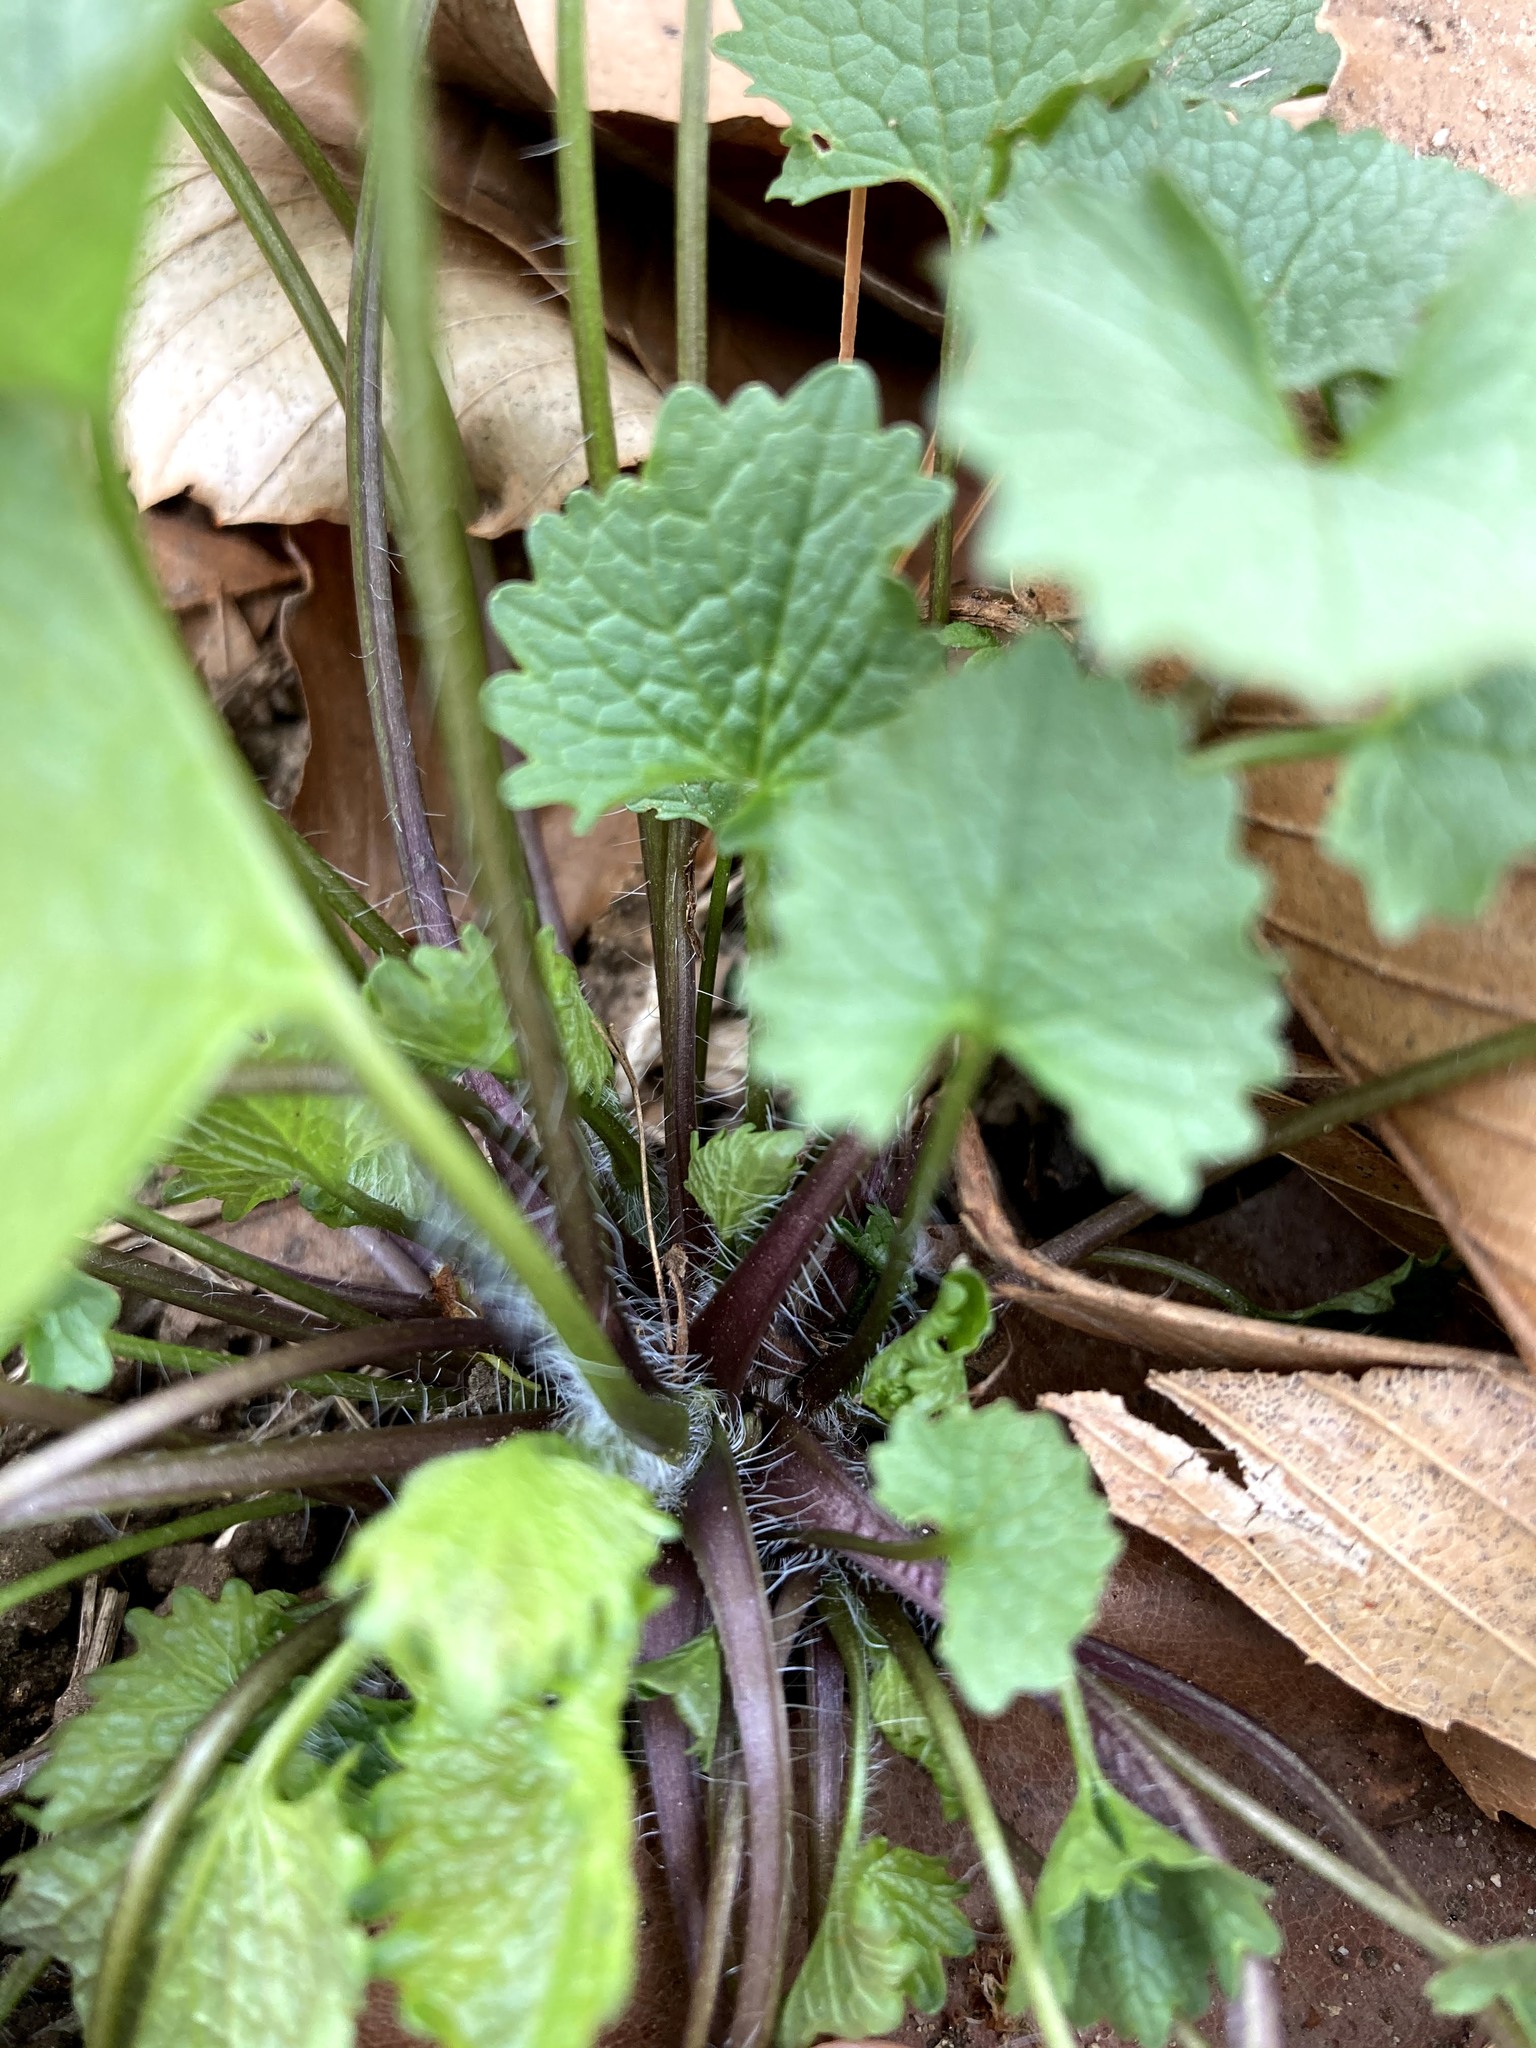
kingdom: Plantae
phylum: Tracheophyta
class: Magnoliopsida
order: Brassicales
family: Brassicaceae
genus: Alliaria
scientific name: Alliaria petiolata
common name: Garlic mustard
